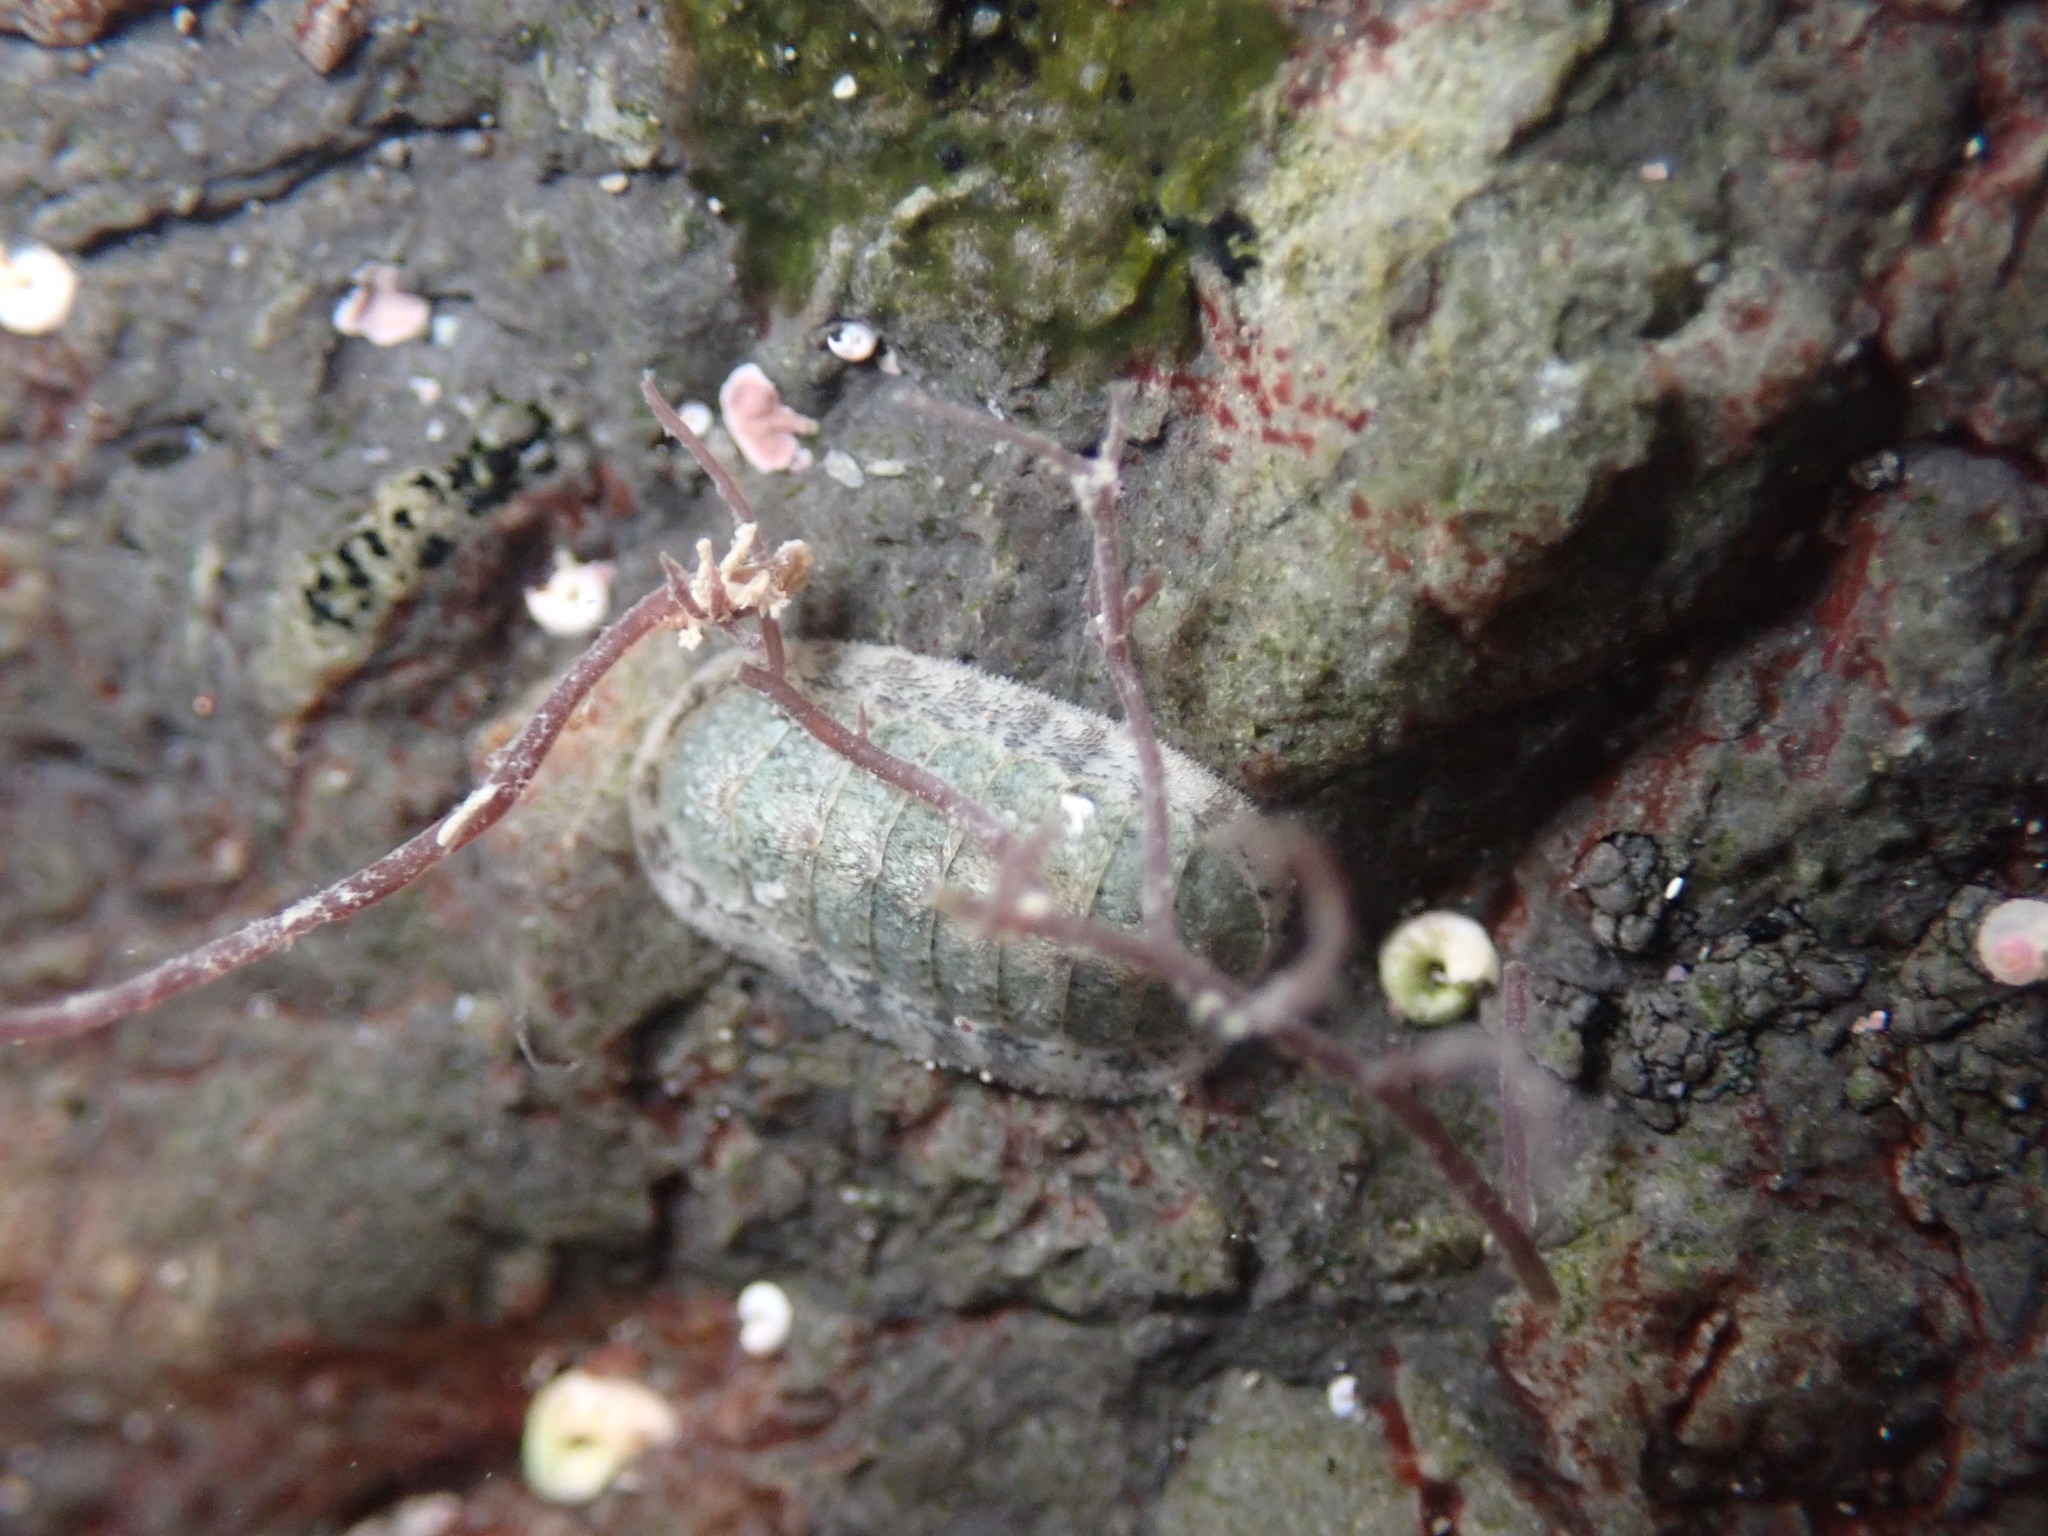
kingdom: Animalia
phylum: Mollusca
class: Polyplacophora
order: Chitonida
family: Ischnochitonidae
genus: Ischnochiton
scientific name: Ischnochiton maorianus
